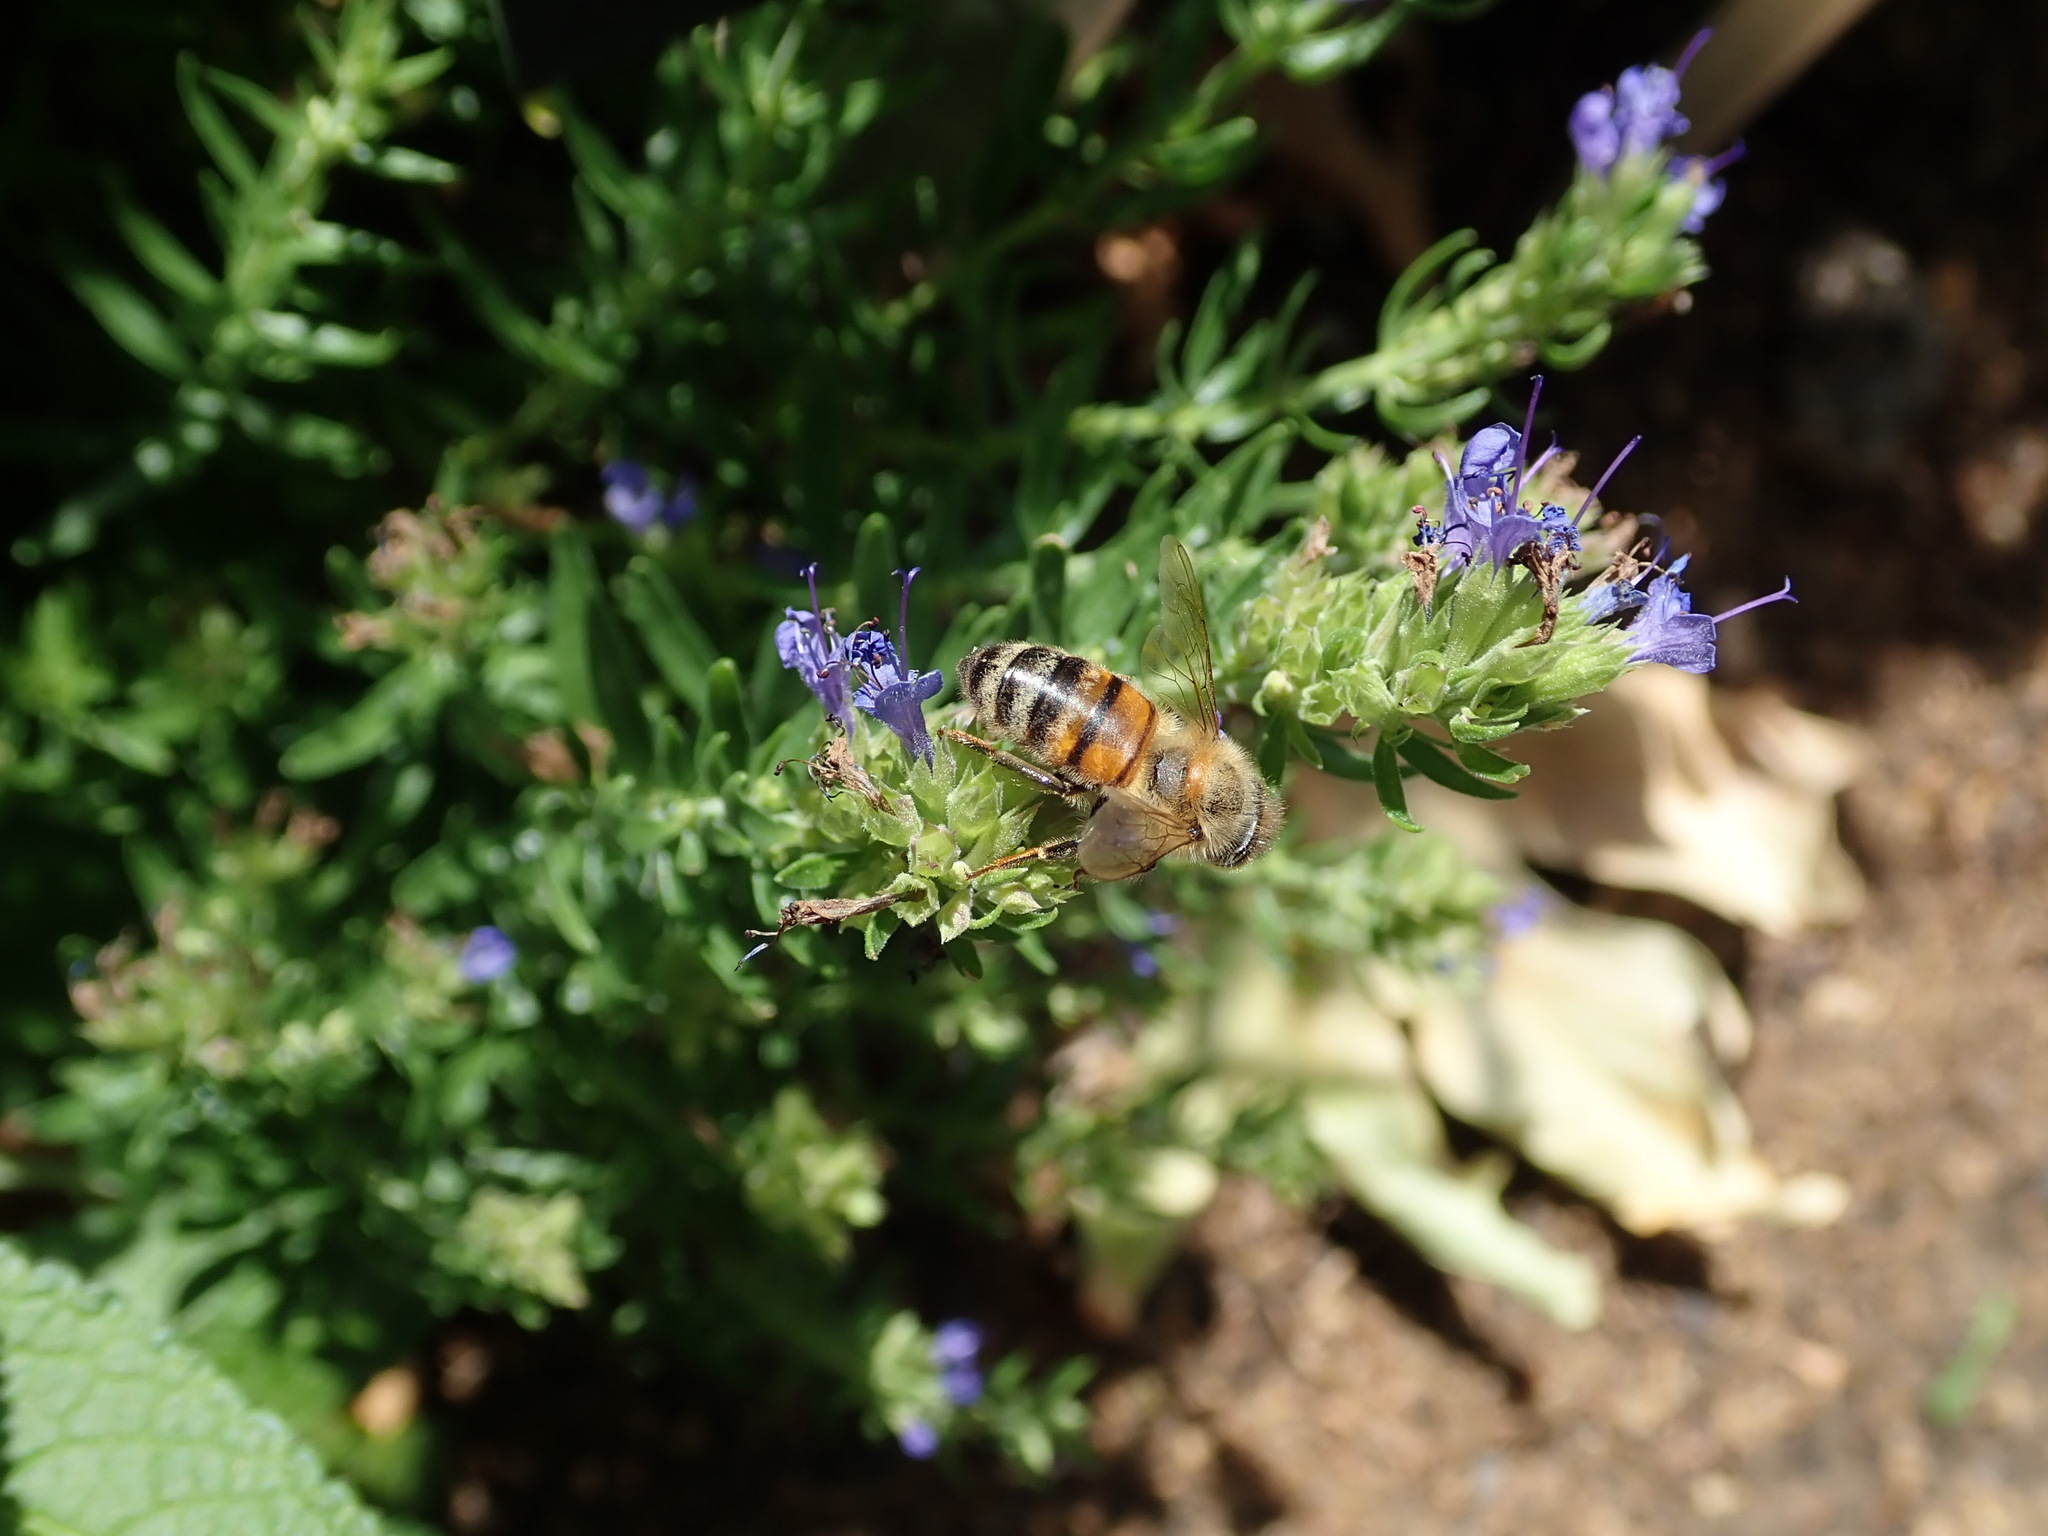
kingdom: Animalia
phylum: Arthropoda
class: Insecta
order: Hymenoptera
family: Apidae
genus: Apis
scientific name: Apis mellifera
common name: Honey bee
